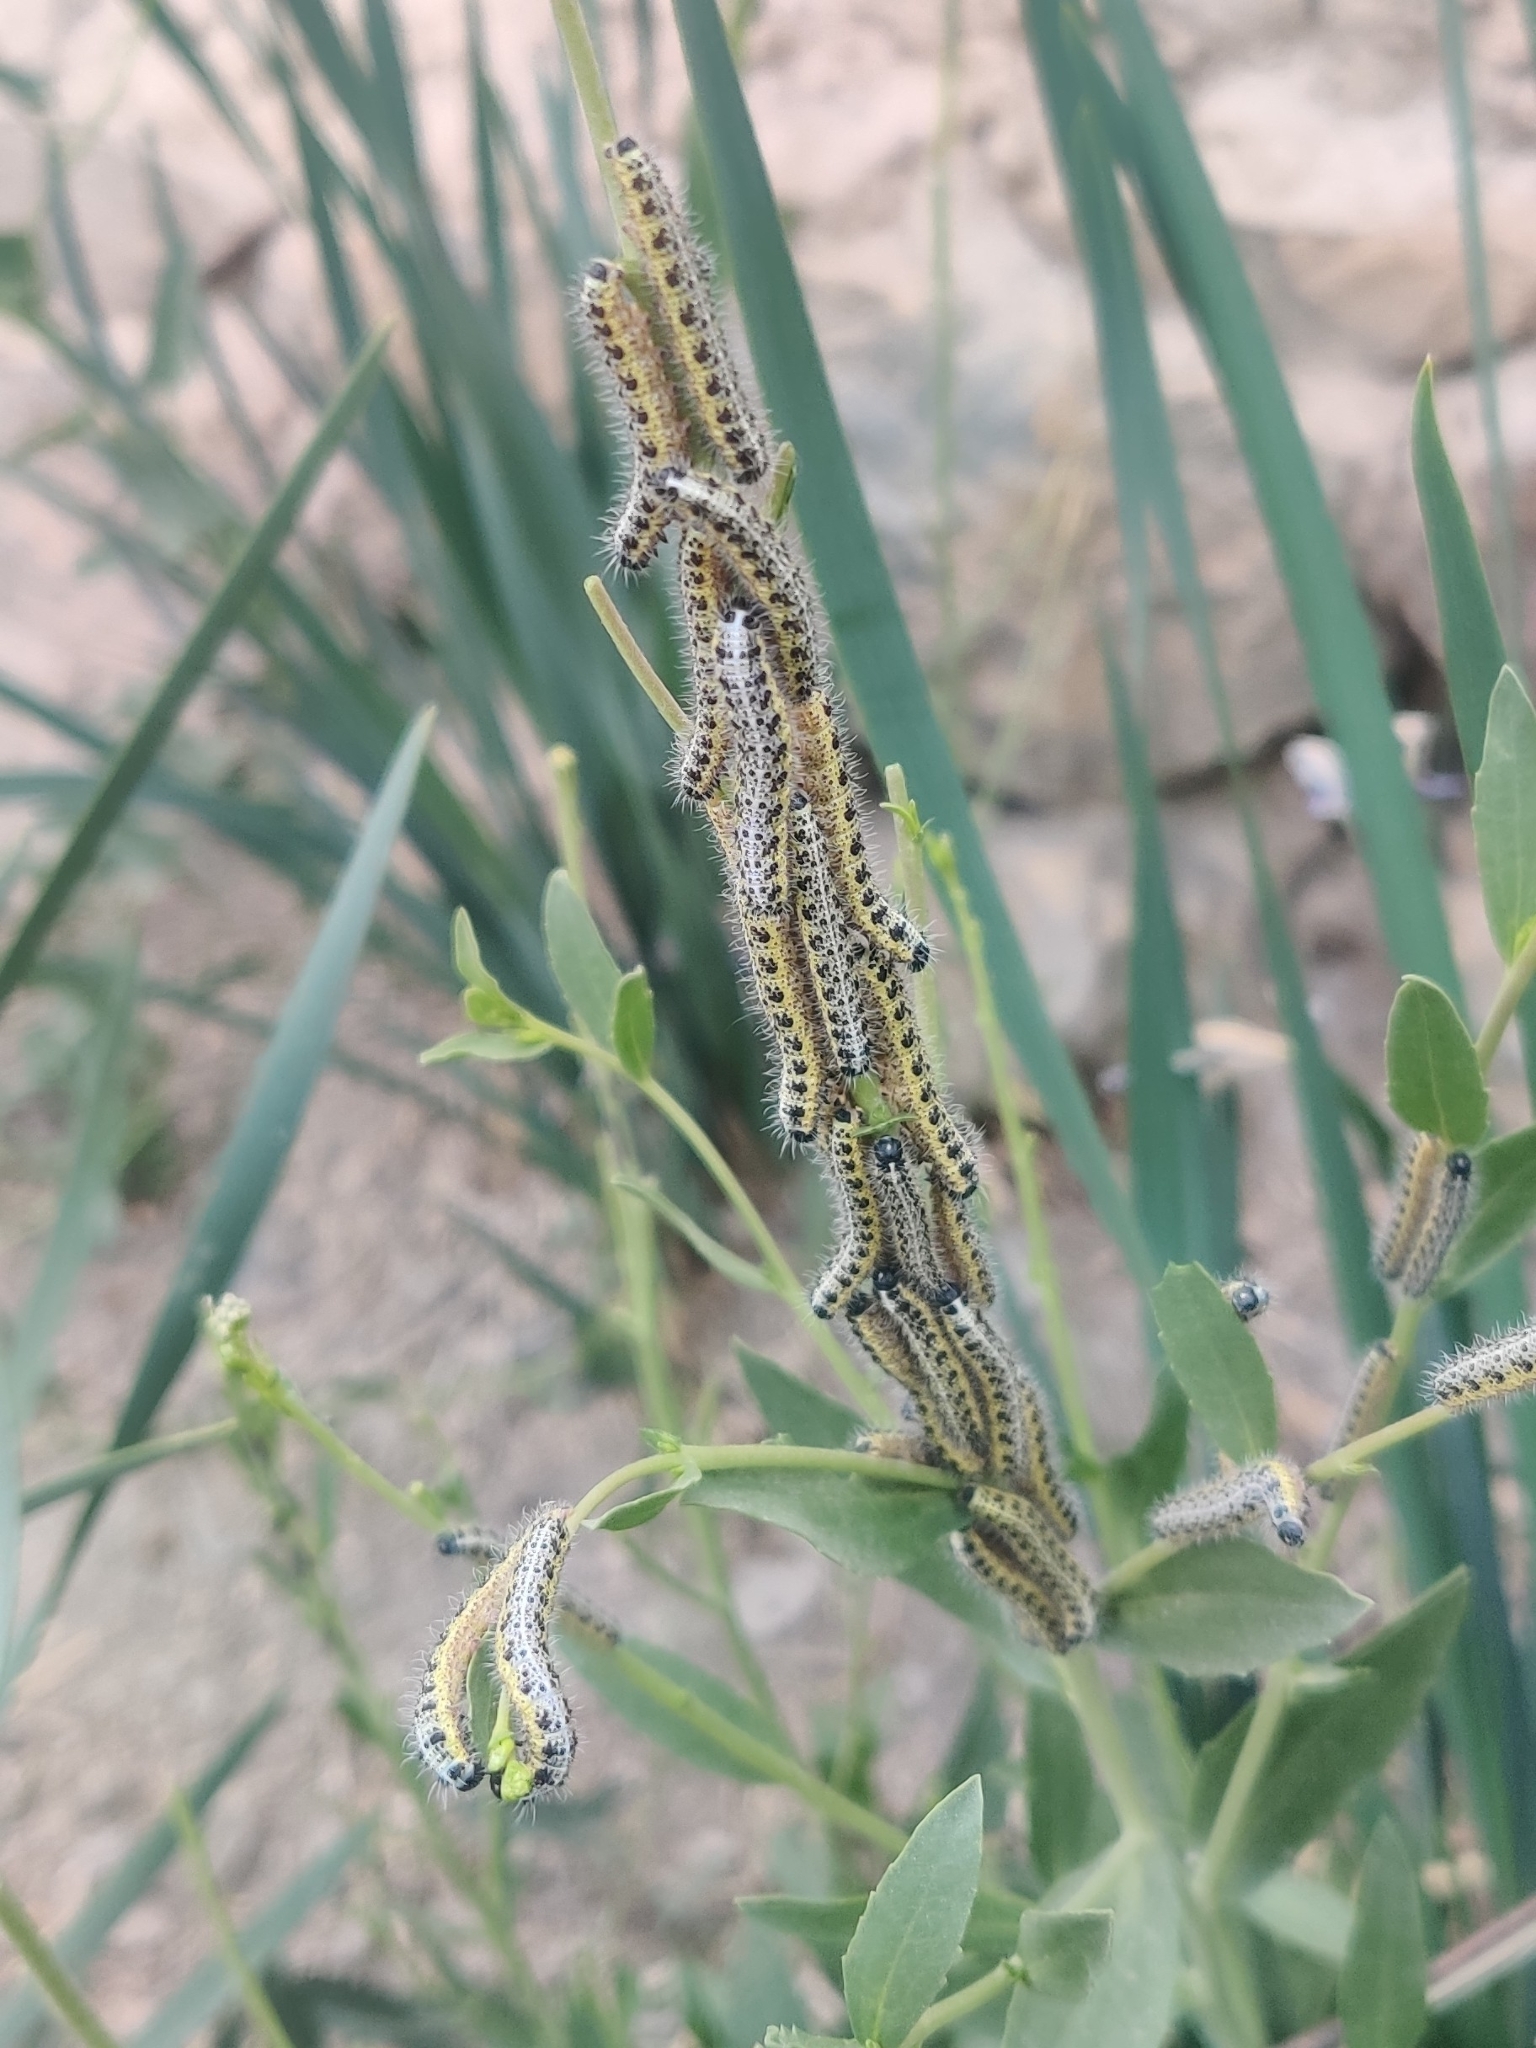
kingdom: Animalia
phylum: Arthropoda
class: Insecta
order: Lepidoptera
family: Pieridae
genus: Pieris
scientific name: Pieris brassicae
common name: Large white
